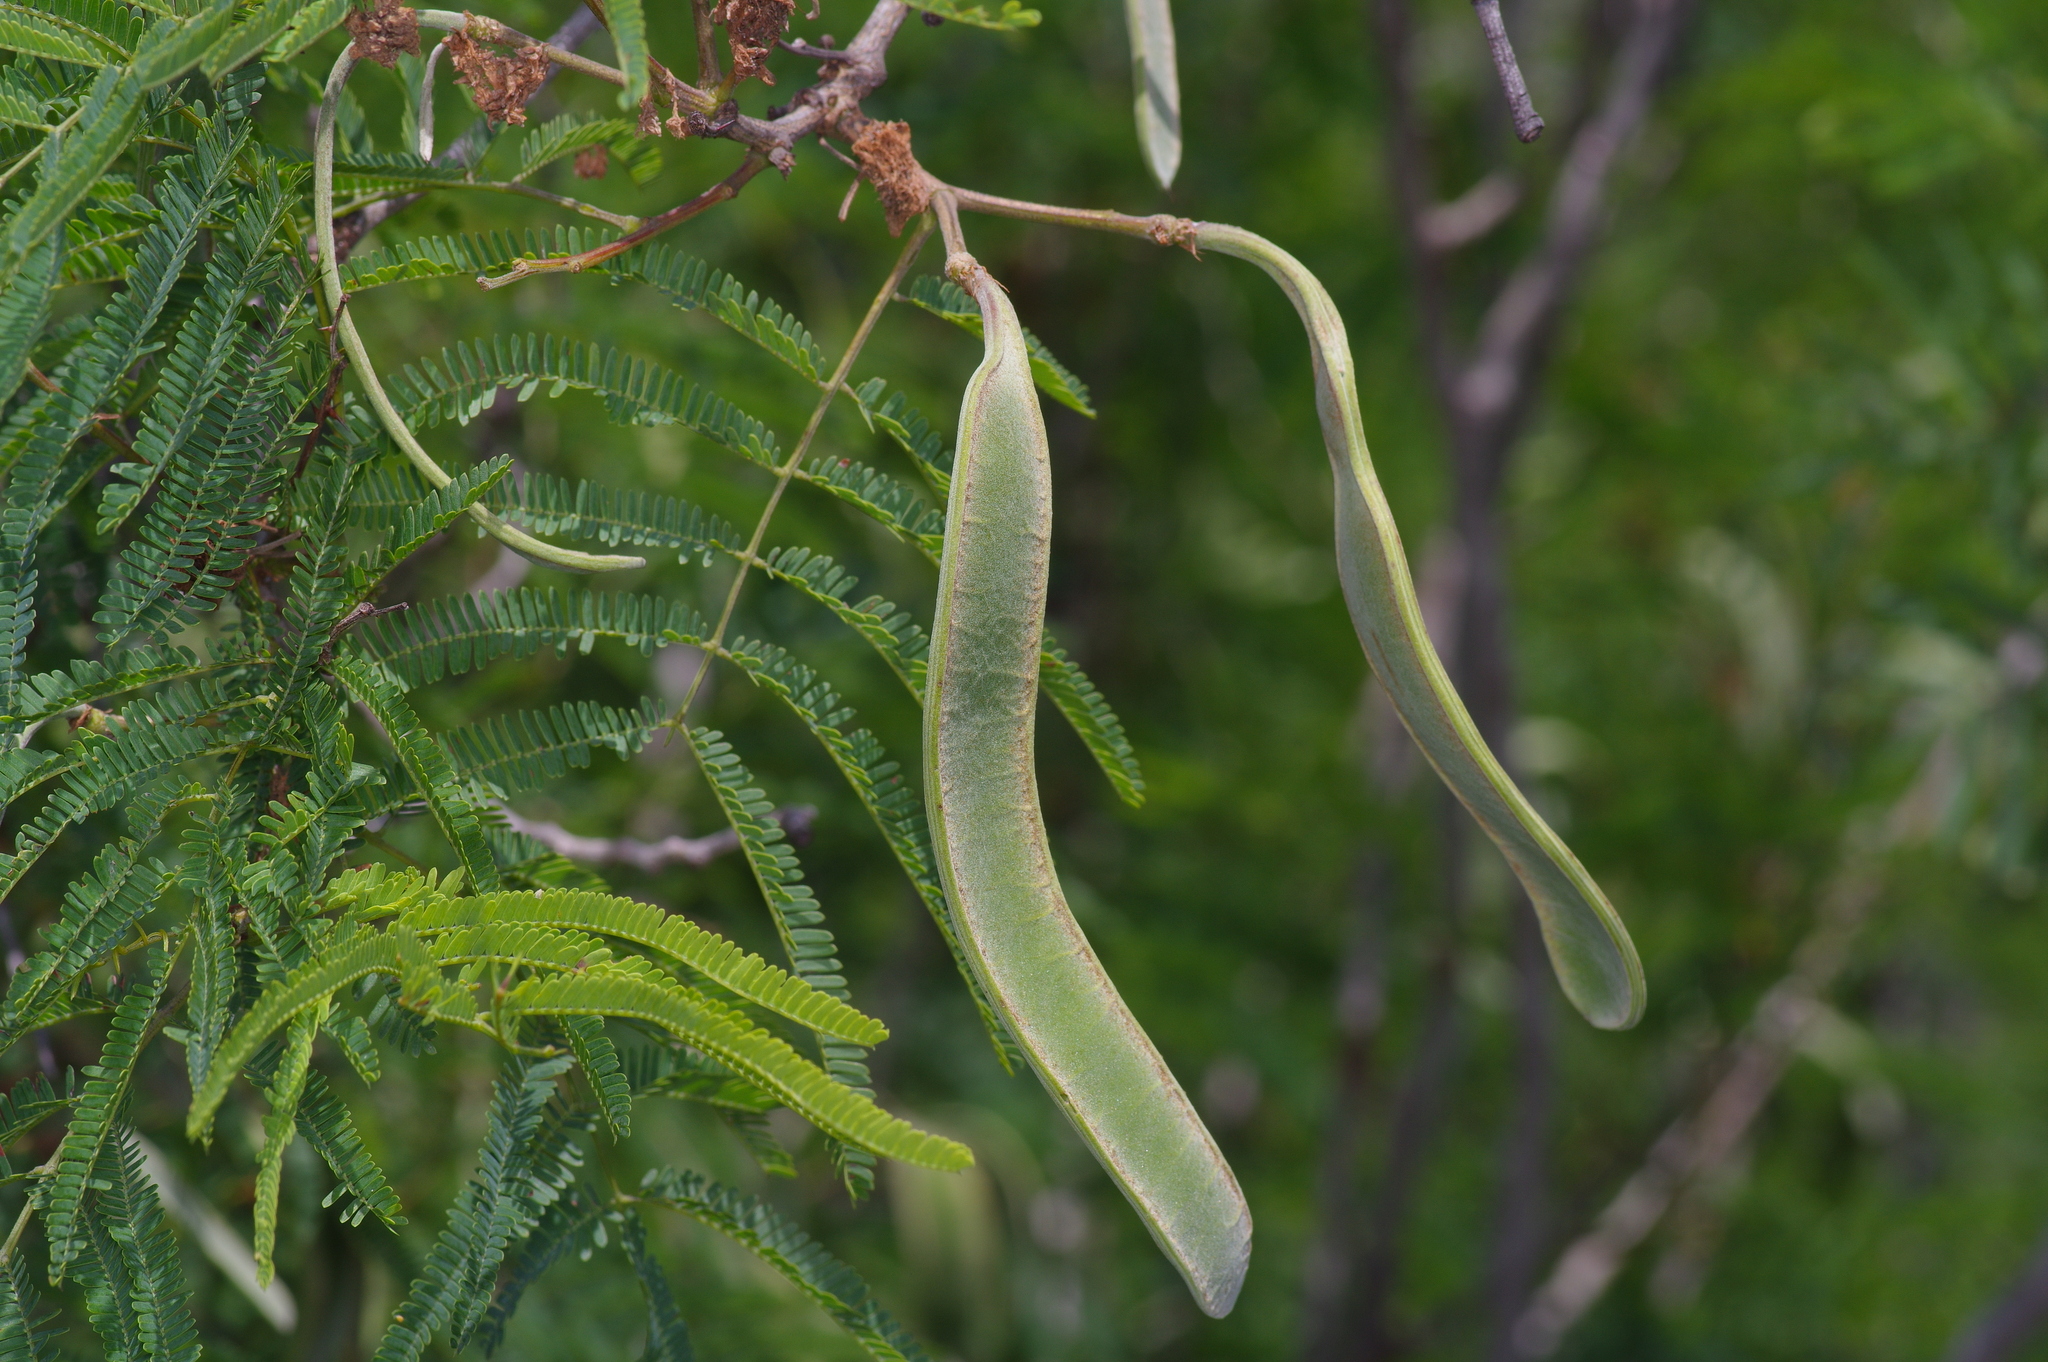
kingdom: Plantae
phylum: Tracheophyta
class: Magnoliopsida
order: Fabales
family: Fabaceae
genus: Senegalia
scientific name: Senegalia berlandieri
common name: Berlandier acacia
